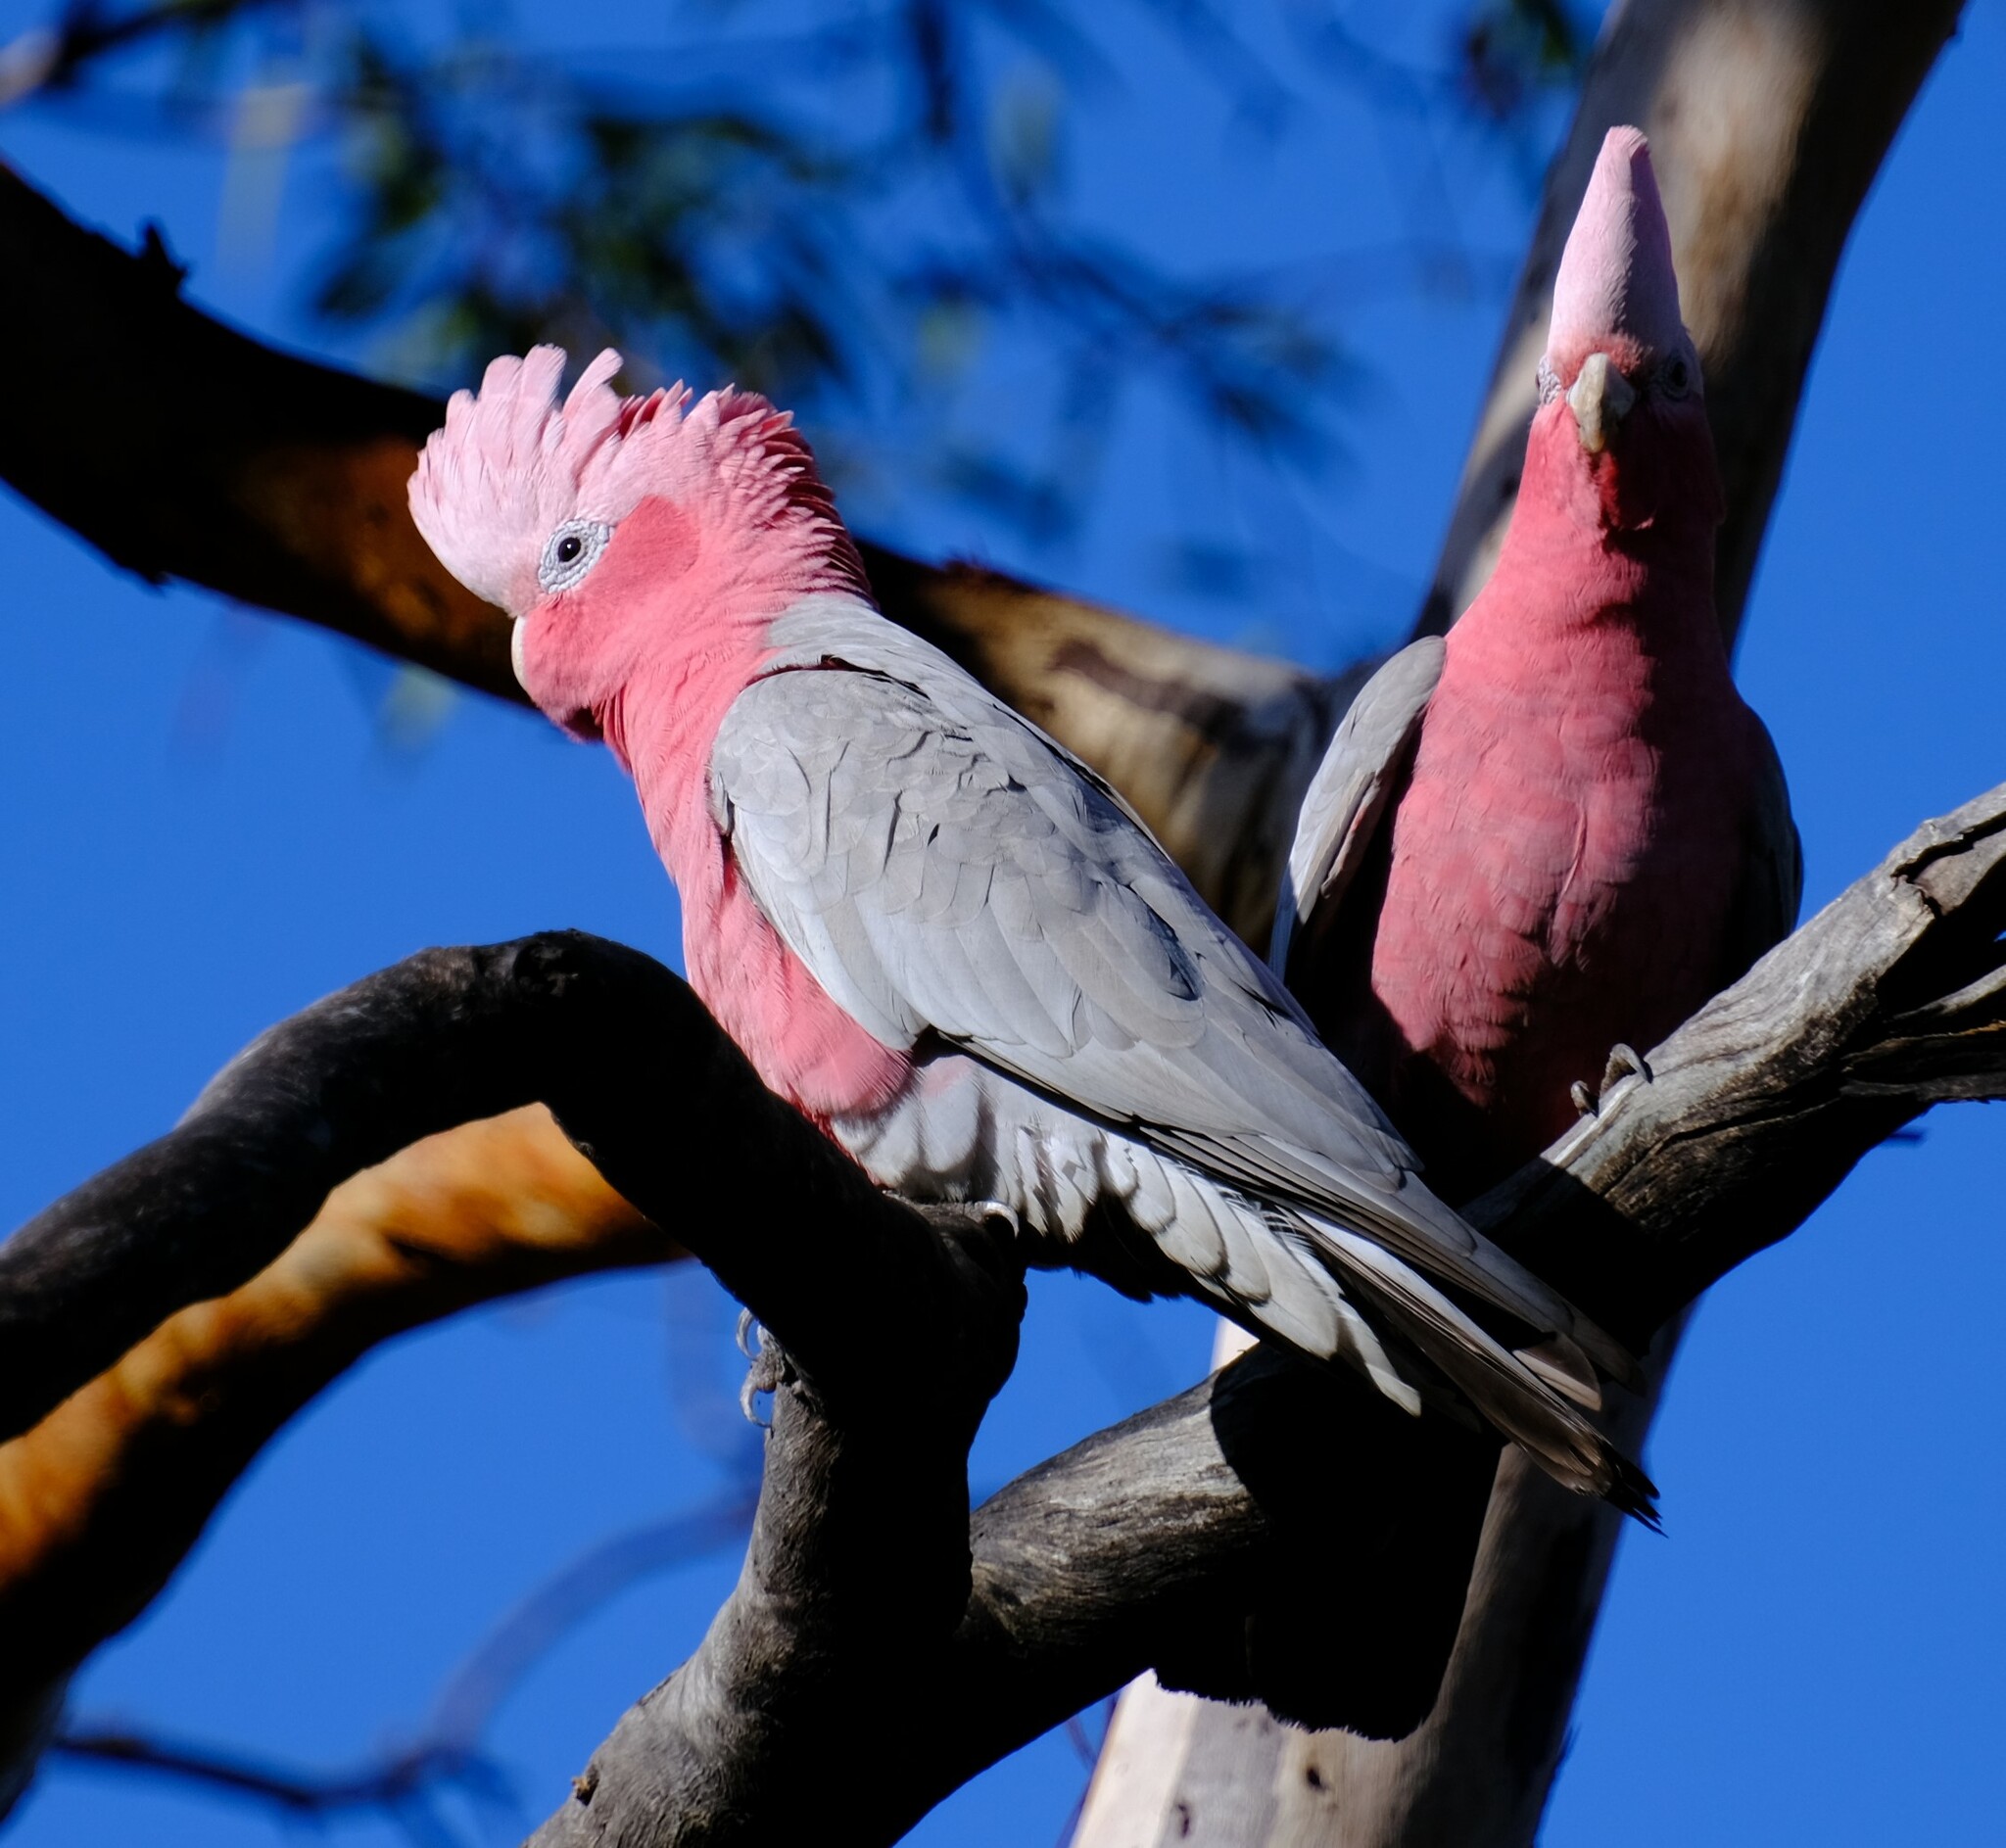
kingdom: Animalia
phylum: Chordata
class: Aves
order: Psittaciformes
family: Psittacidae
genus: Eolophus
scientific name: Eolophus roseicapilla
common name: Galah
